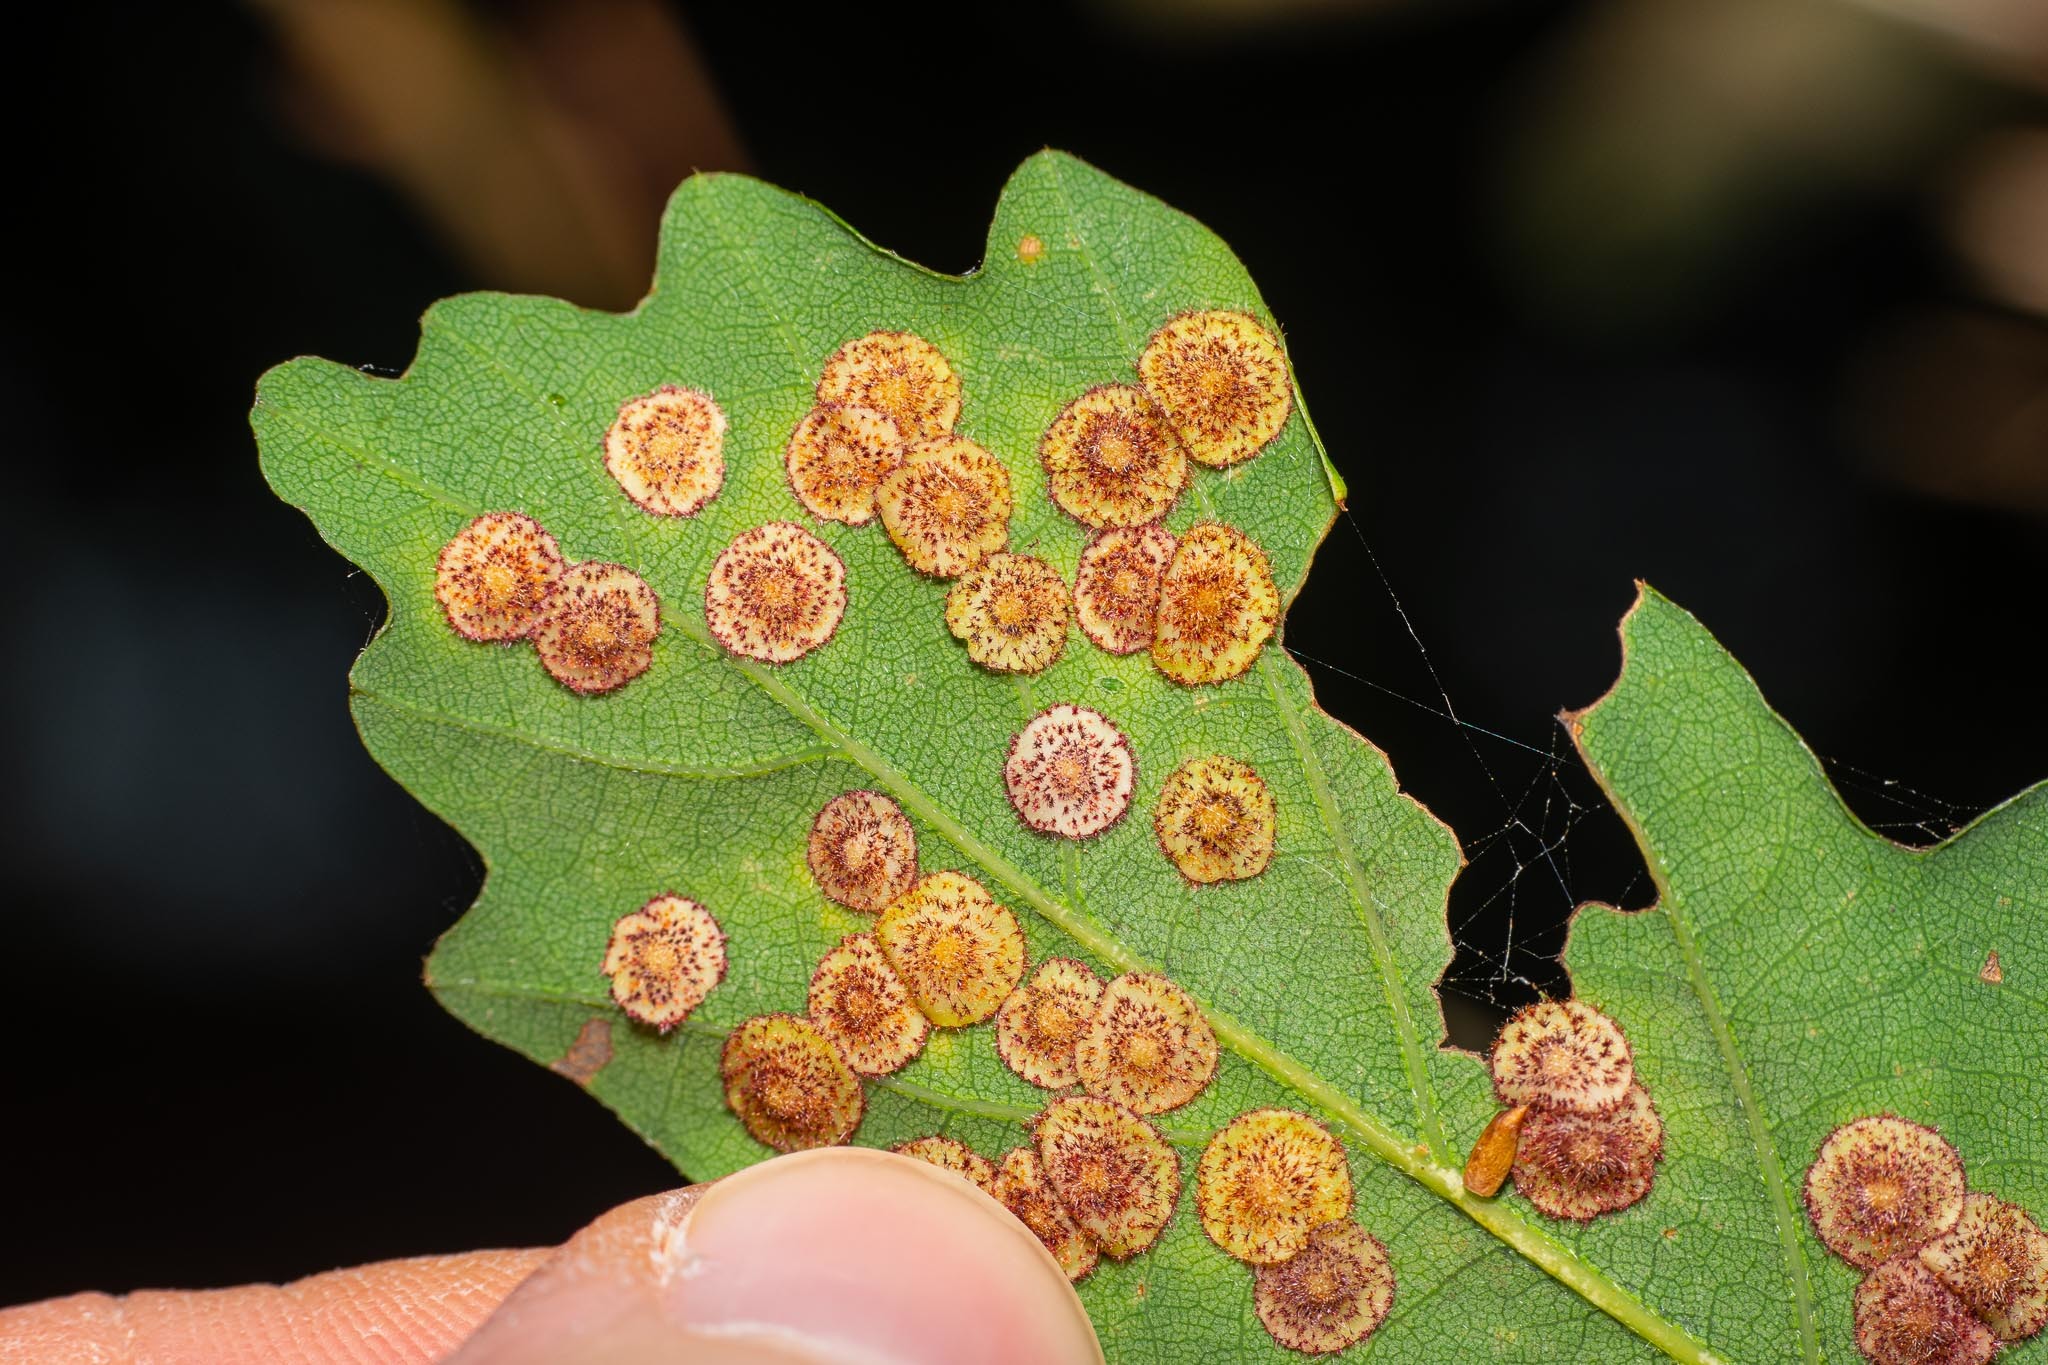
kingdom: Animalia
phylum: Arthropoda
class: Insecta
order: Hymenoptera
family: Cynipidae
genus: Neuroterus
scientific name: Neuroterus quercusbaccarum
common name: Common spangle gall
